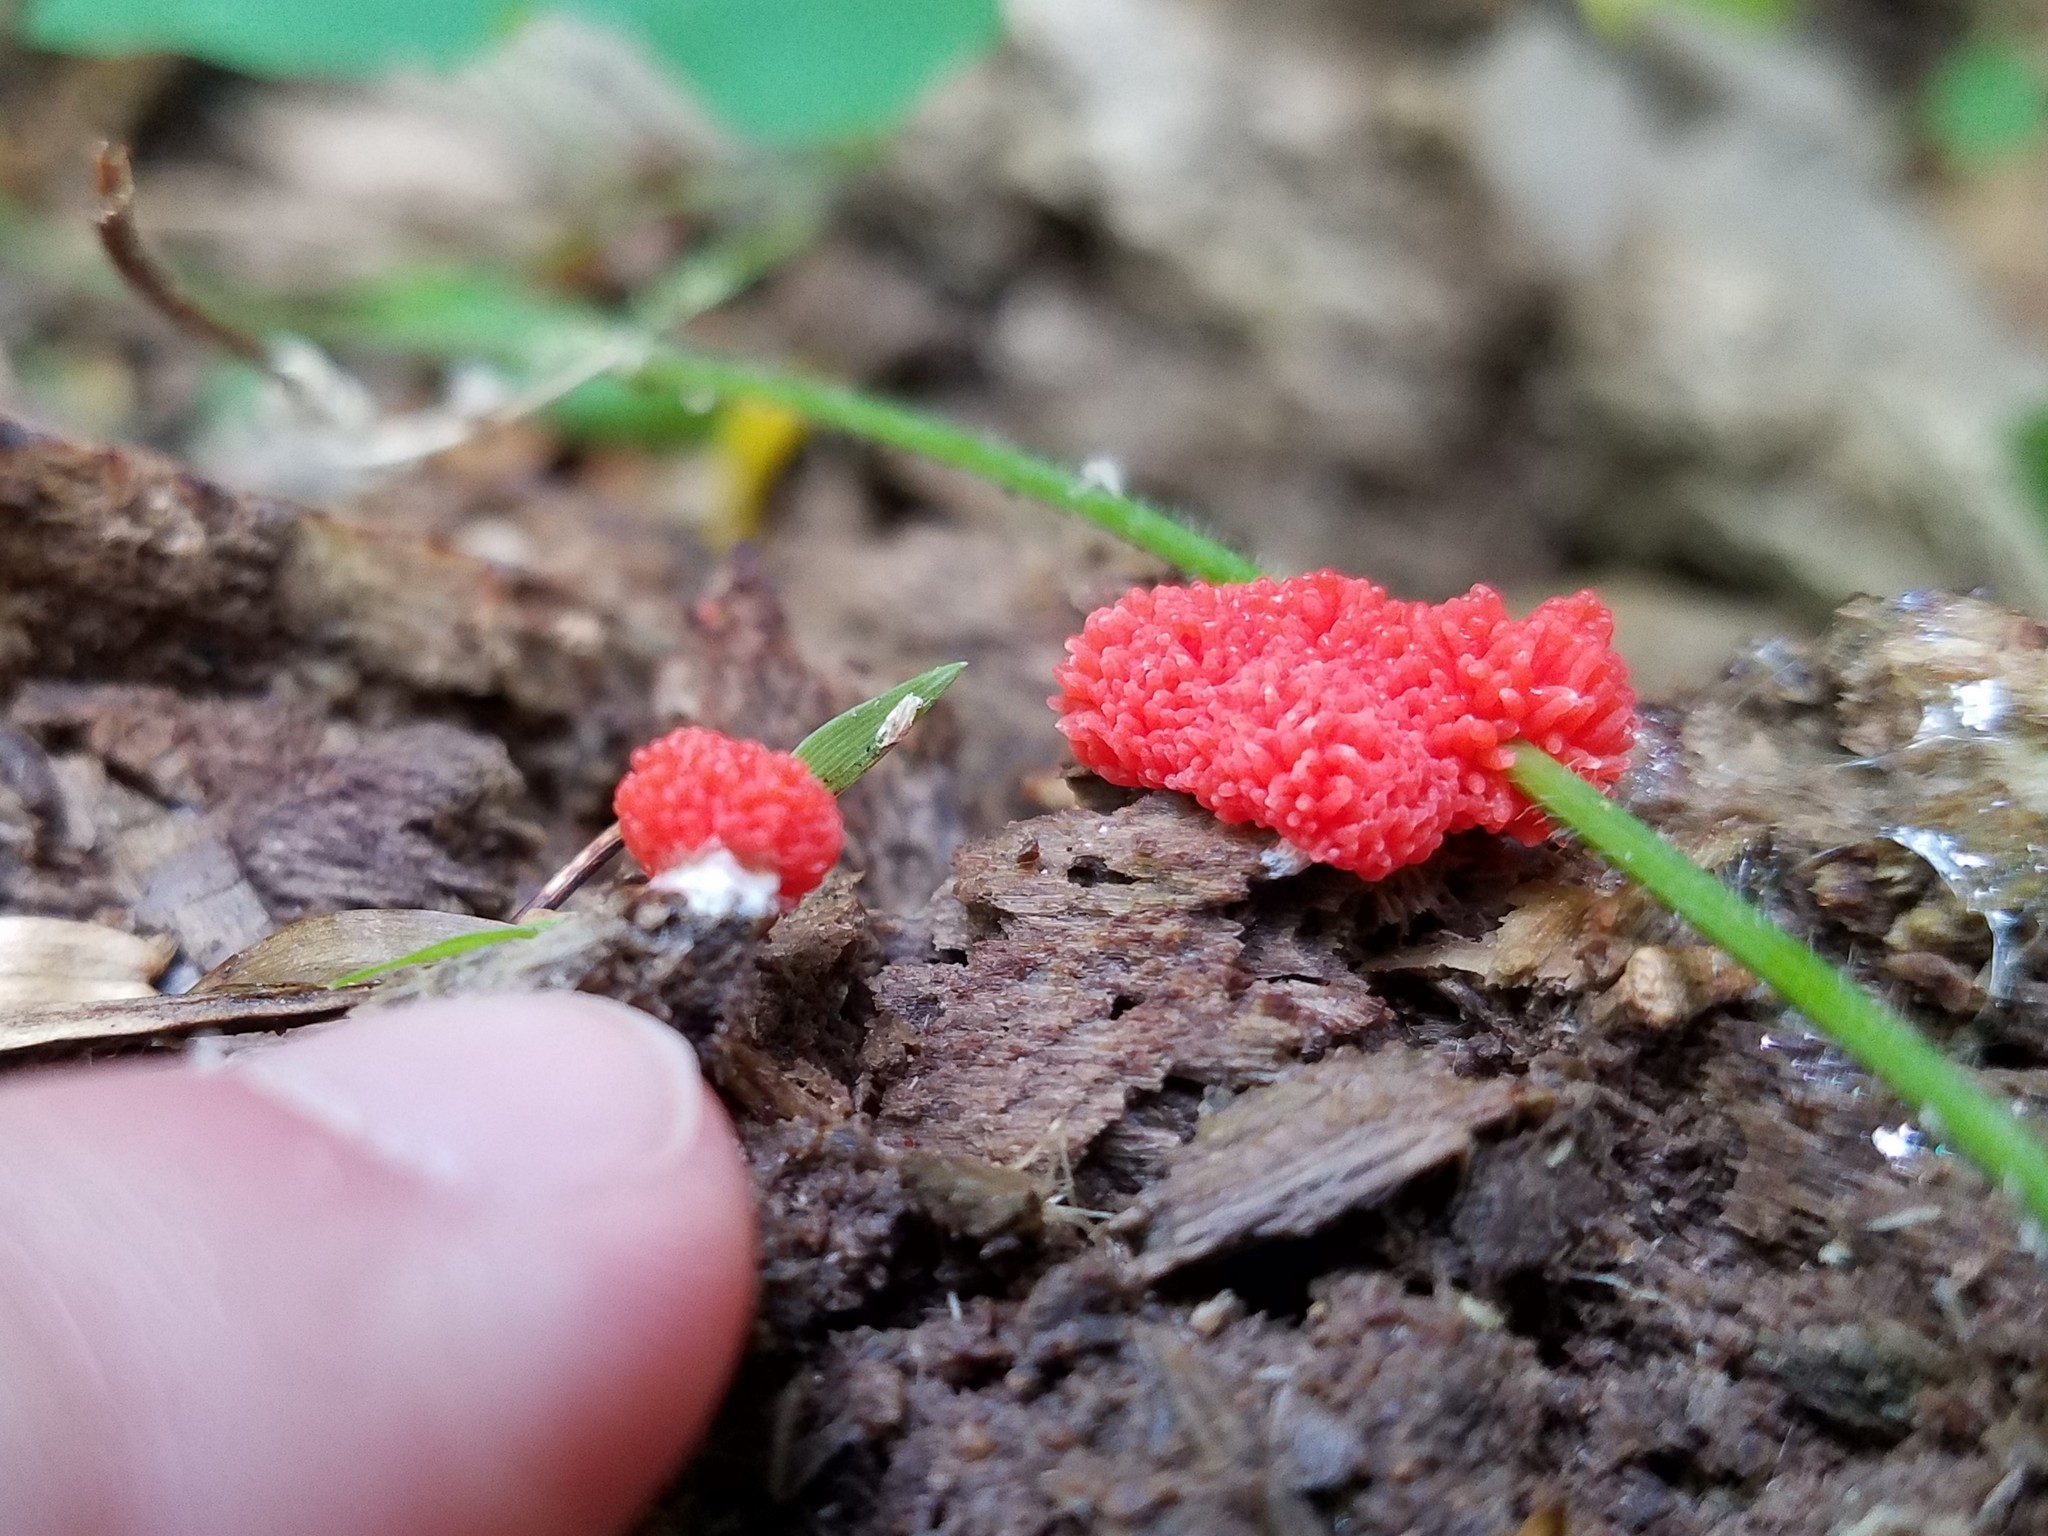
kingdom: Protozoa
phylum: Mycetozoa
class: Myxomycetes
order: Cribrariales
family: Tubiferaceae
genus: Tubifera
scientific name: Tubifera ferruginosa
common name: Red raspberry slime mold
